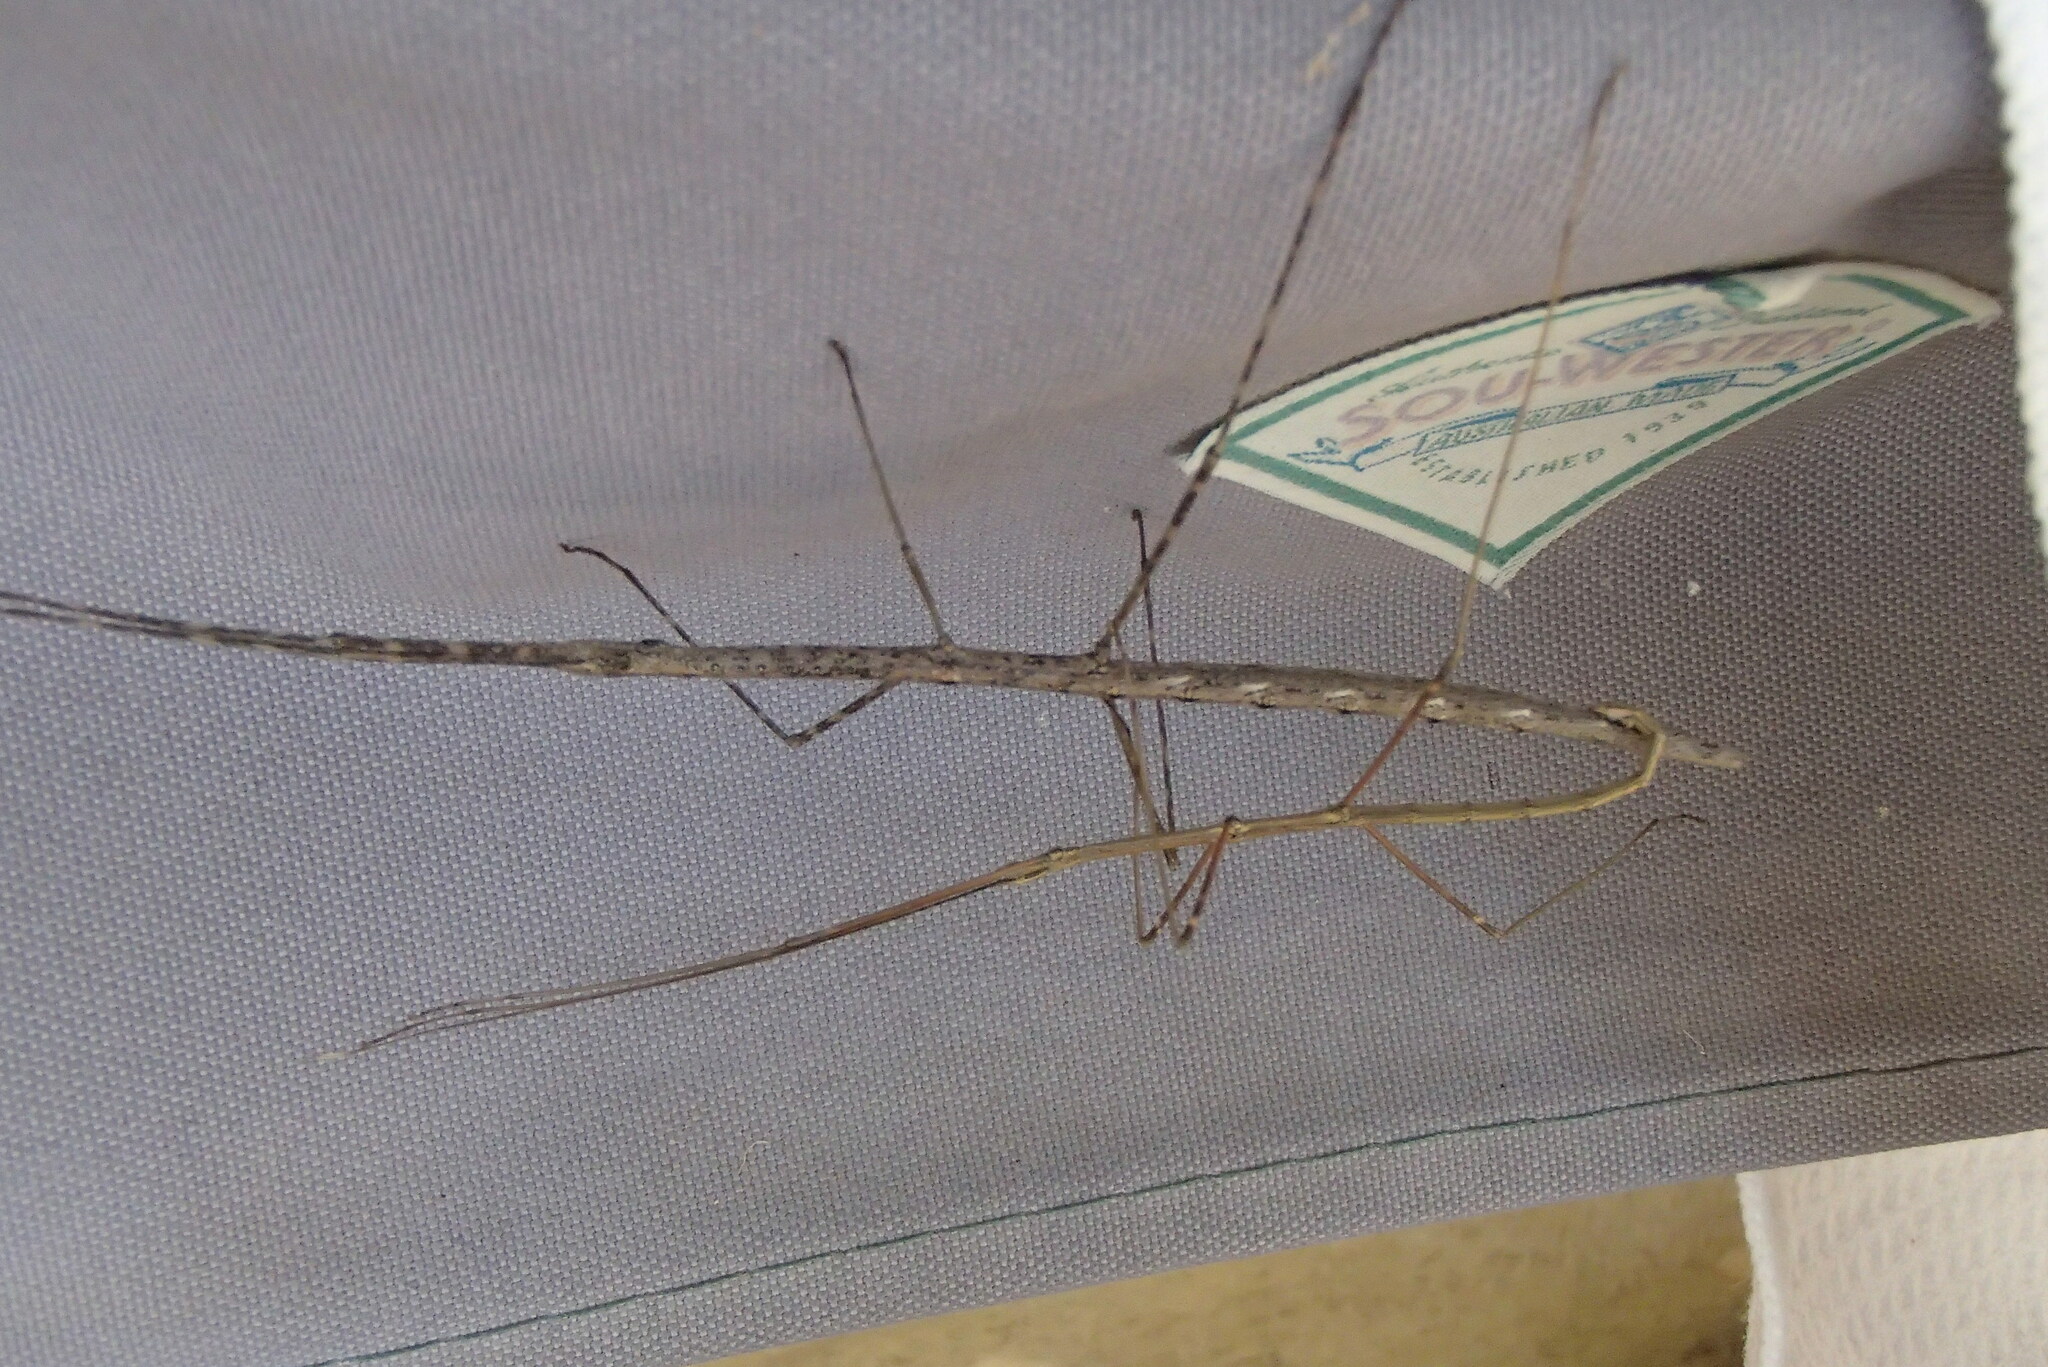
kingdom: Animalia
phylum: Arthropoda
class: Insecta
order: Phasmida
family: Lonchodidae
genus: Candovia
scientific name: Candovia annulata
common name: Banded-legged stick-insect
